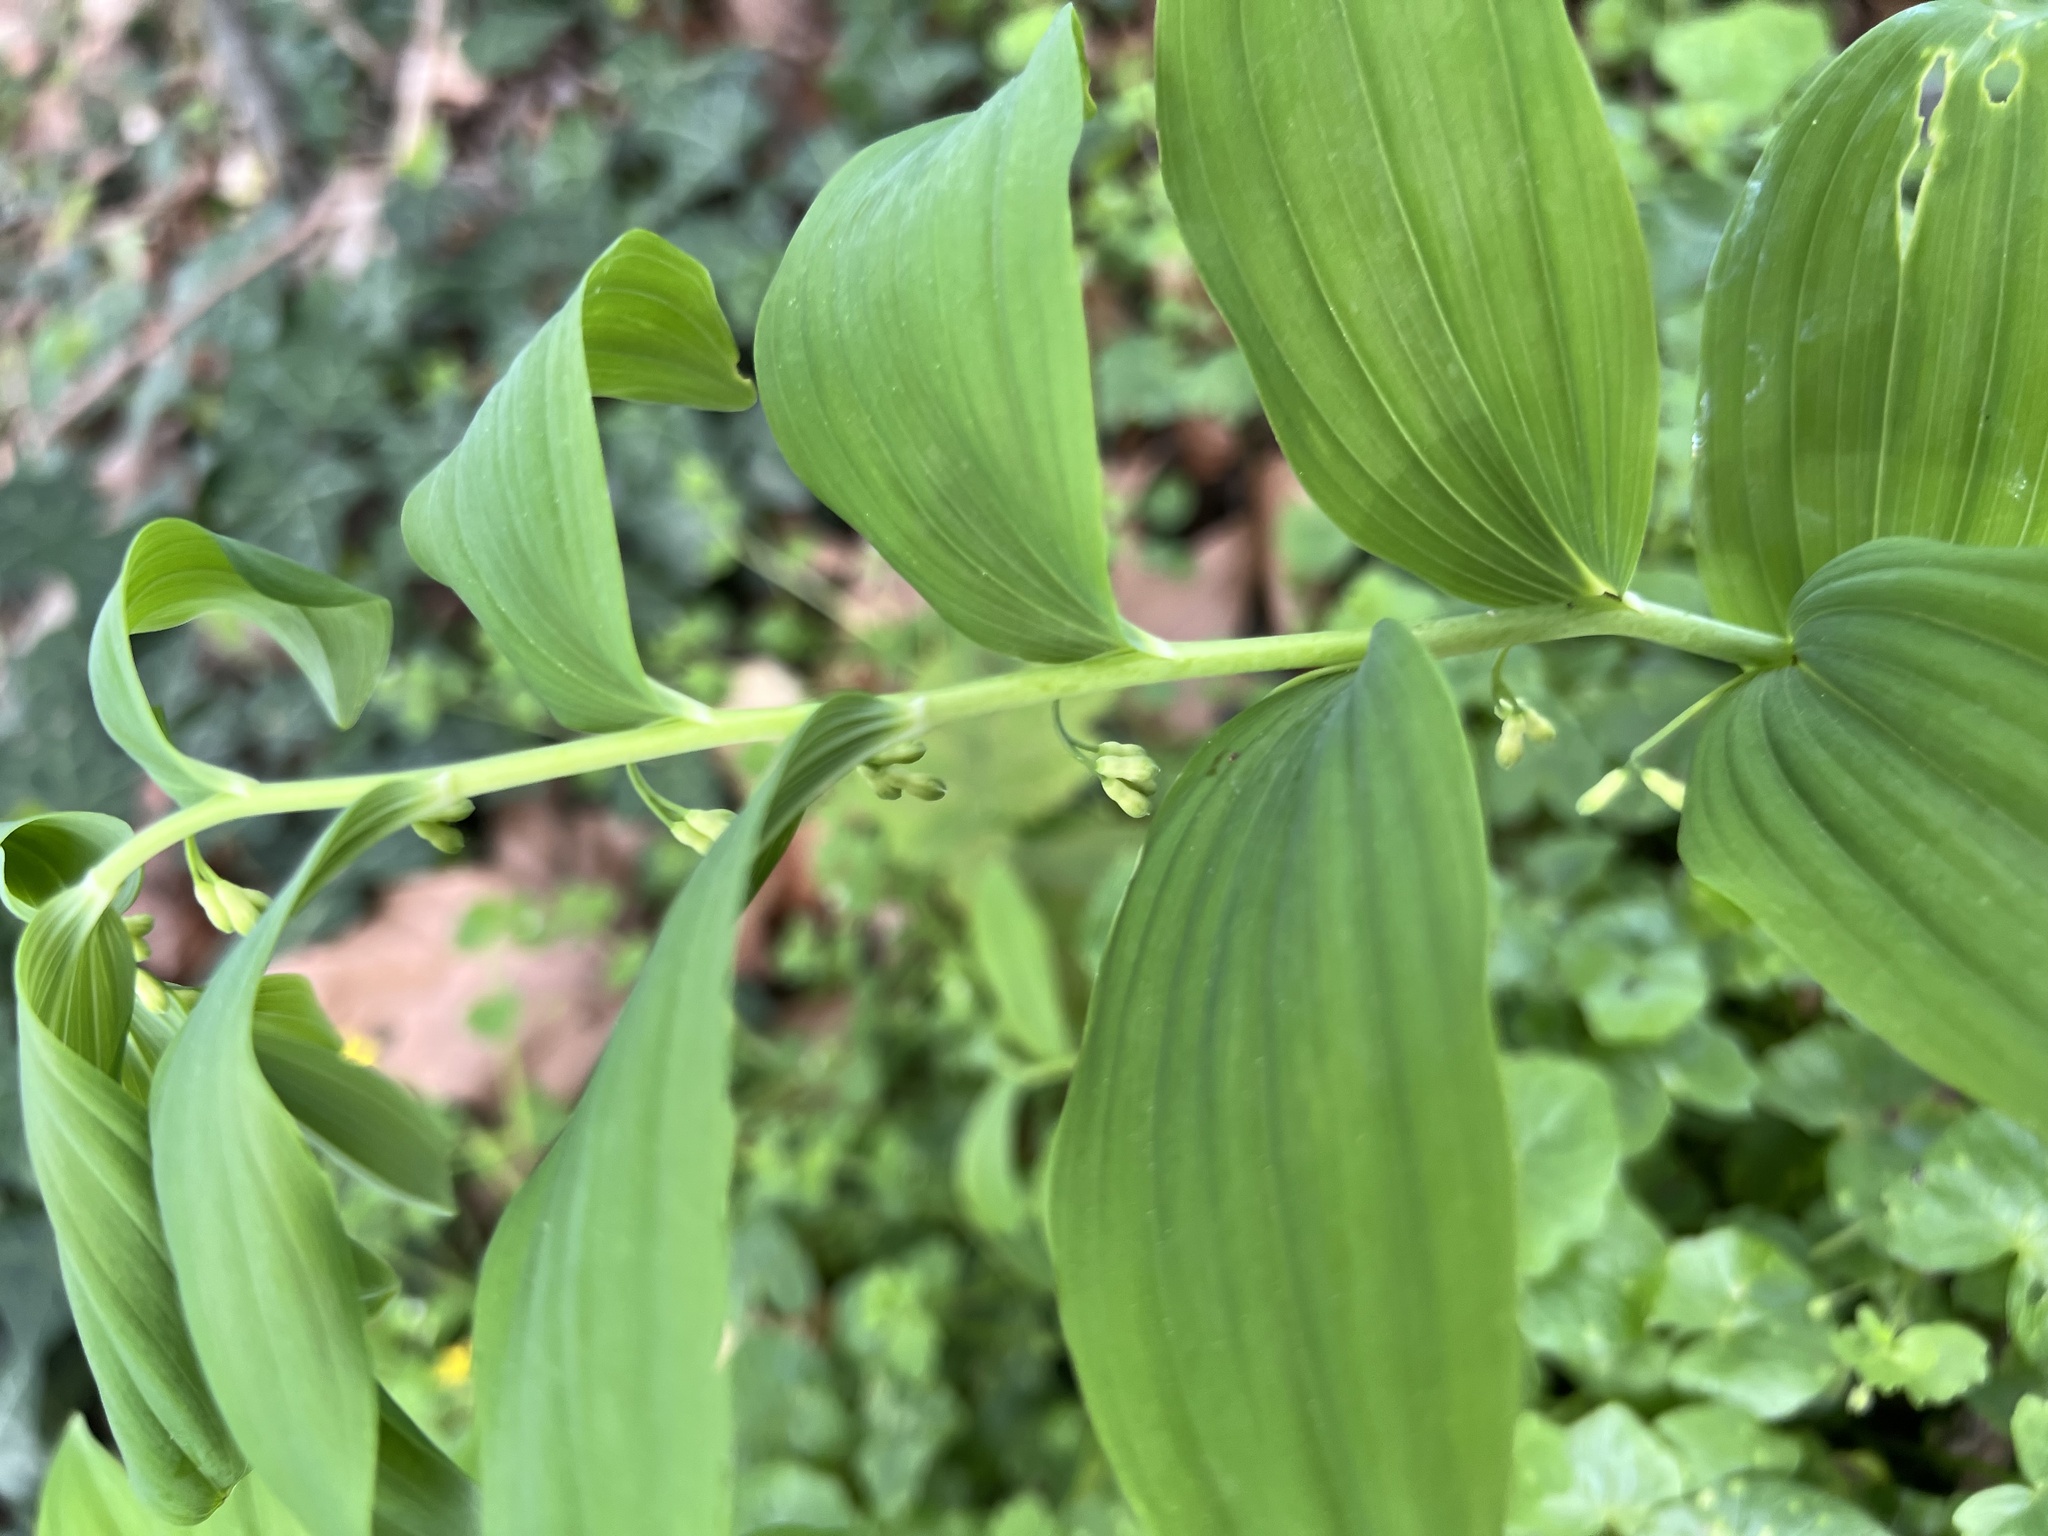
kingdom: Plantae
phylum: Tracheophyta
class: Liliopsida
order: Asparagales
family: Asparagaceae
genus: Polygonatum
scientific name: Polygonatum multiflorum
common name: Solomon's-seal
